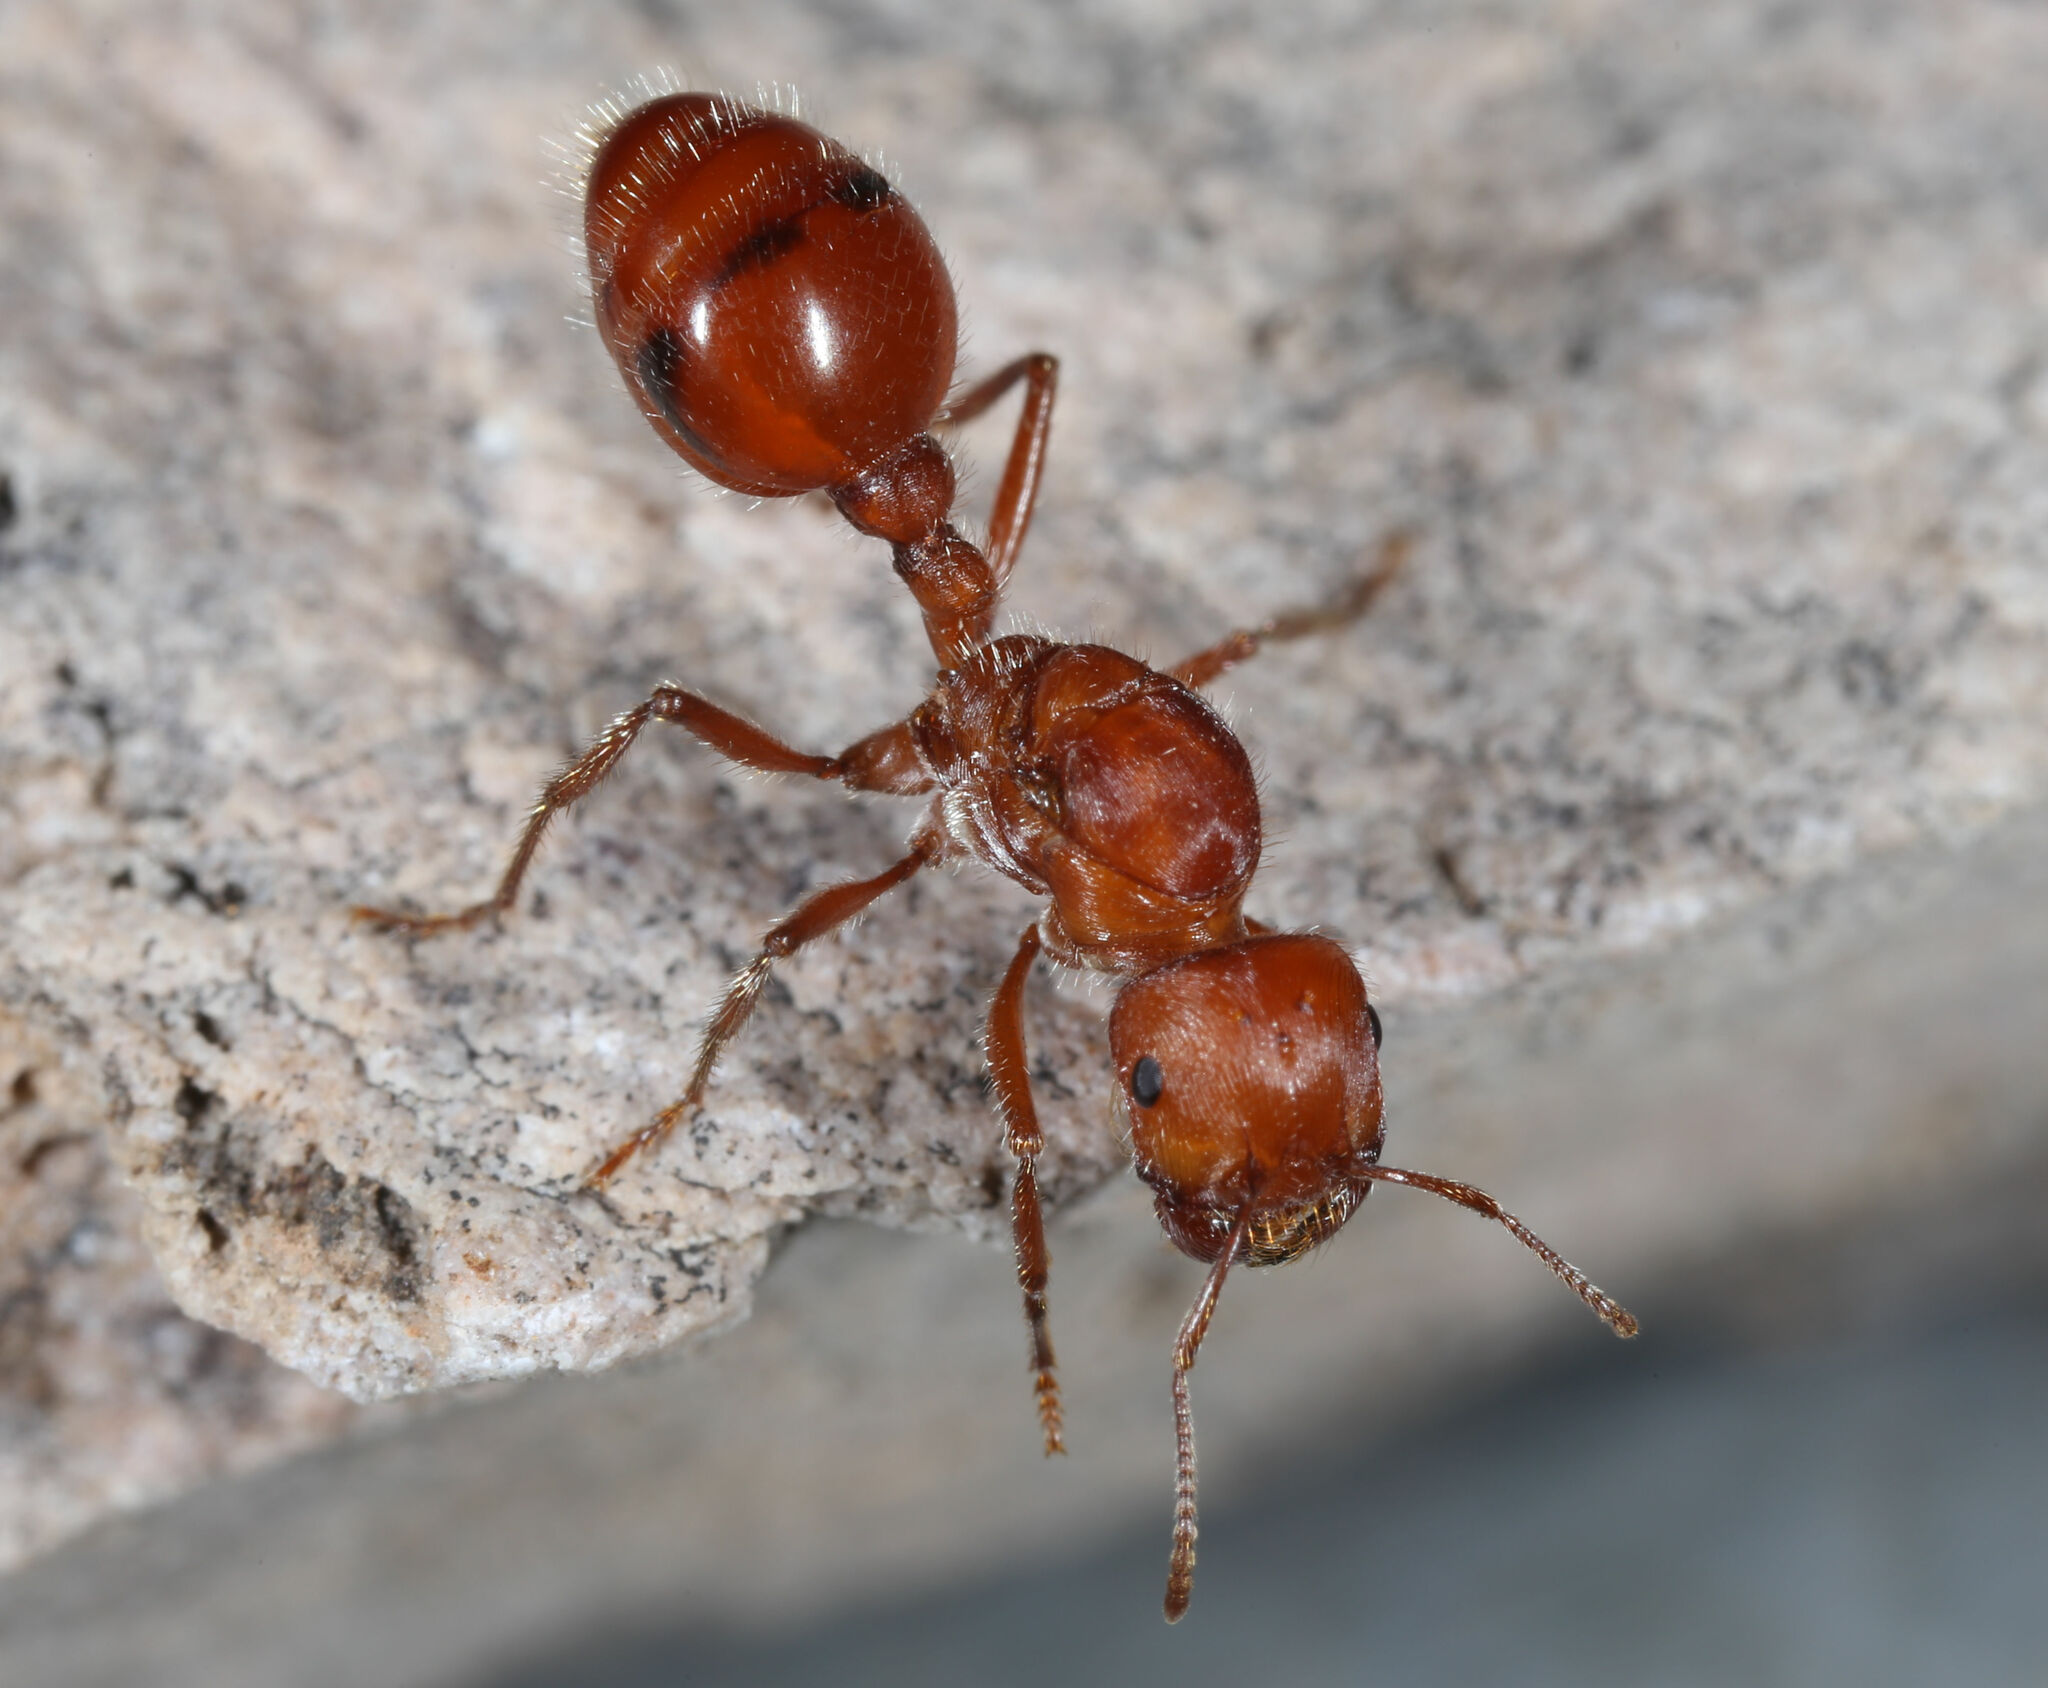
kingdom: Animalia
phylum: Arthropoda
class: Insecta
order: Hymenoptera
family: Formicidae
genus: Pogonomyrmex
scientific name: Pogonomyrmex maricopa
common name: Maricopa harvester ant
